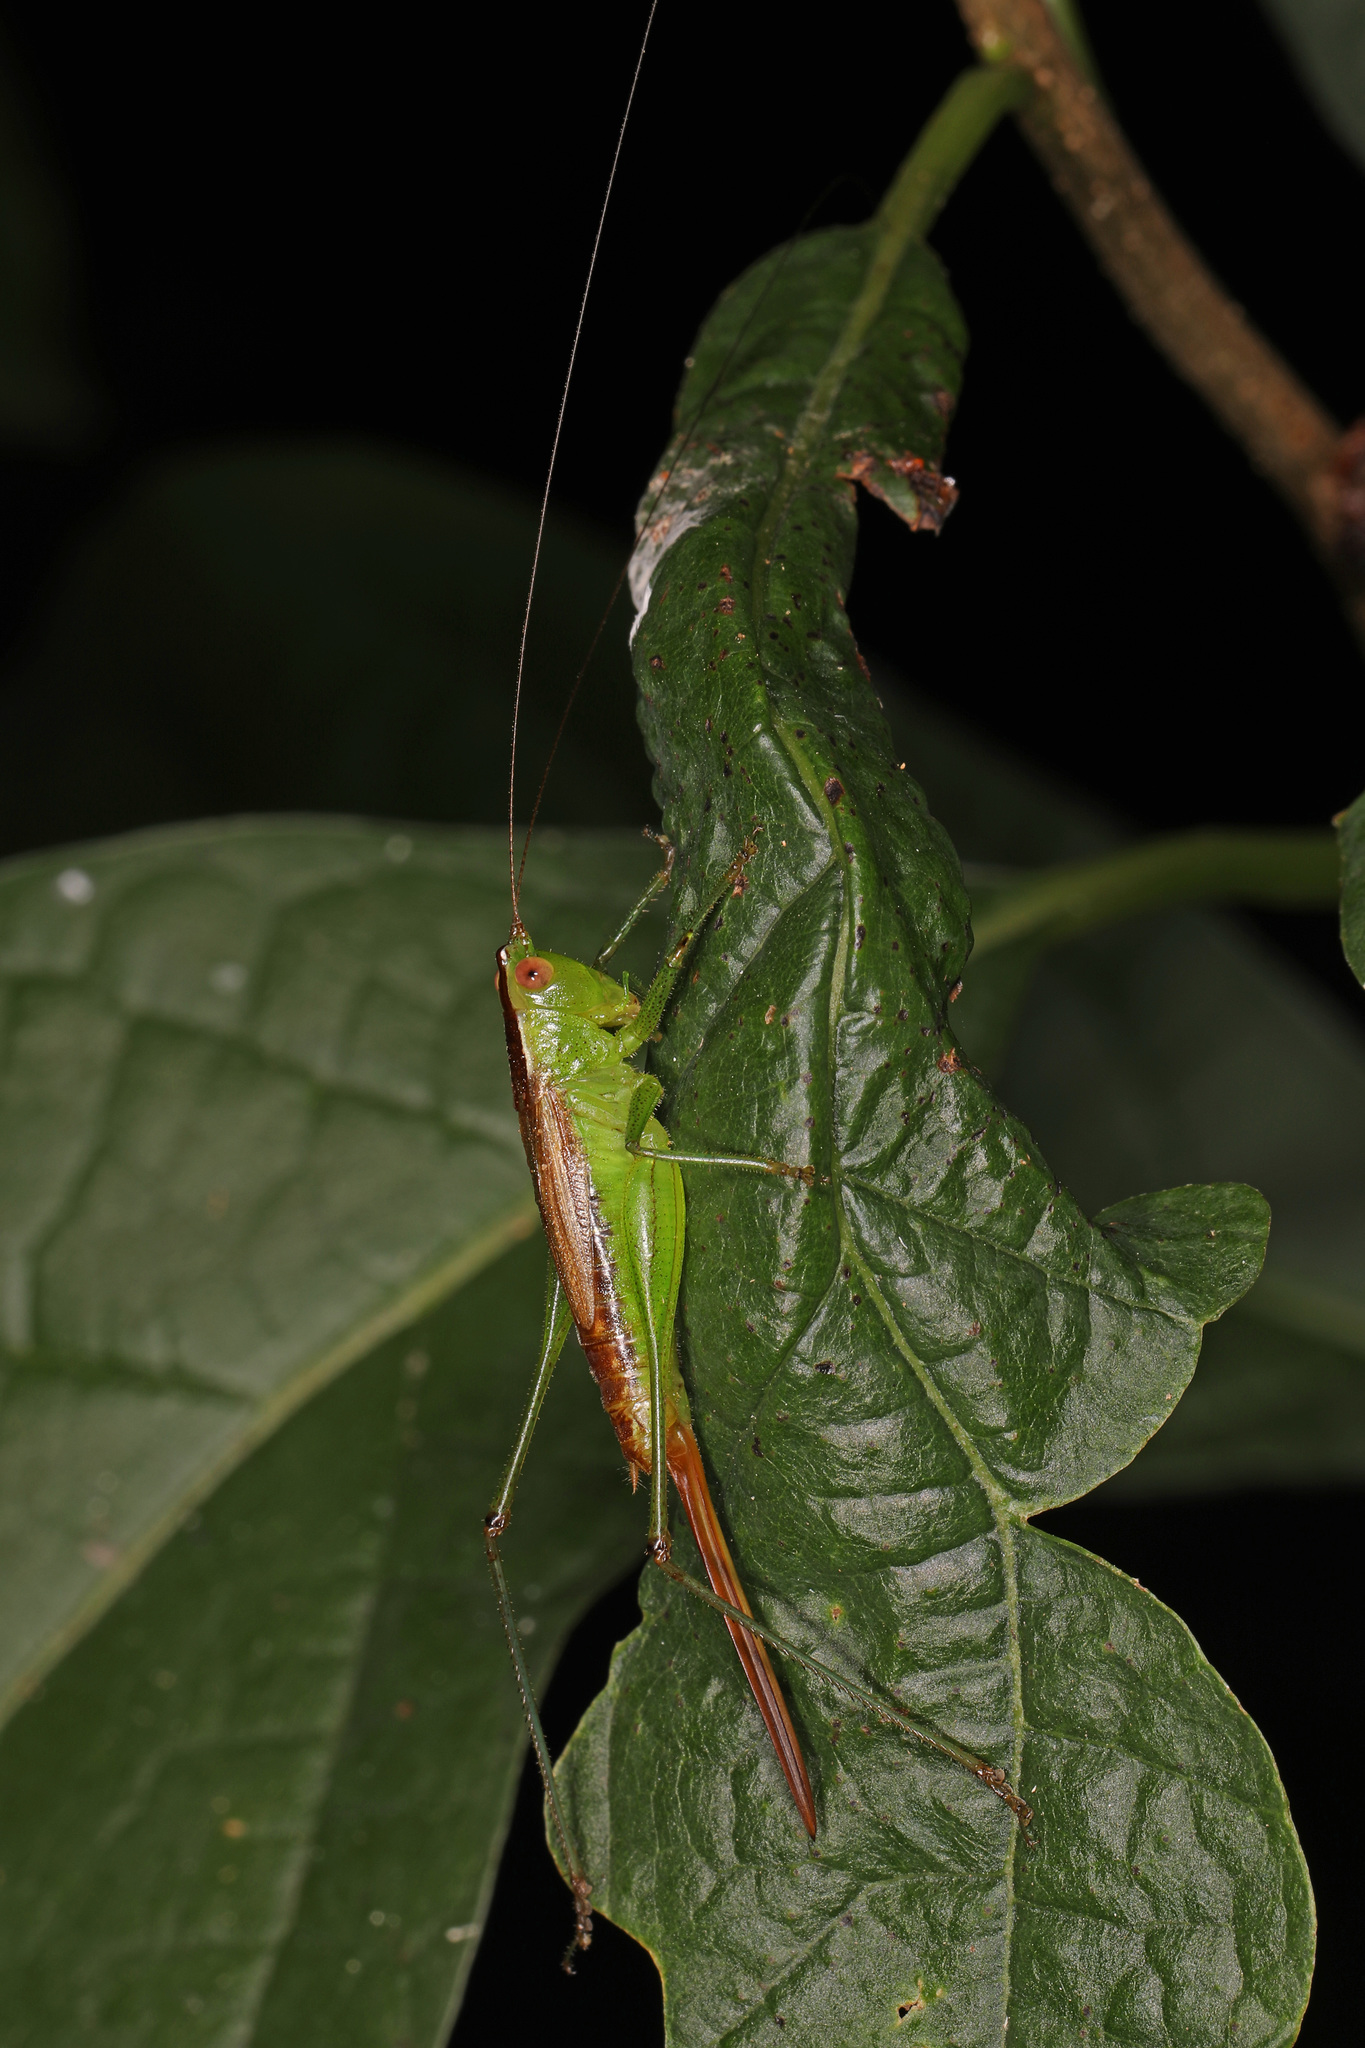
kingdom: Animalia
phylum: Arthropoda
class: Insecta
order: Orthoptera
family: Tettigoniidae
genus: Conocephalus
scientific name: Conocephalus brevipennis
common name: Short-winged meadow katydid
